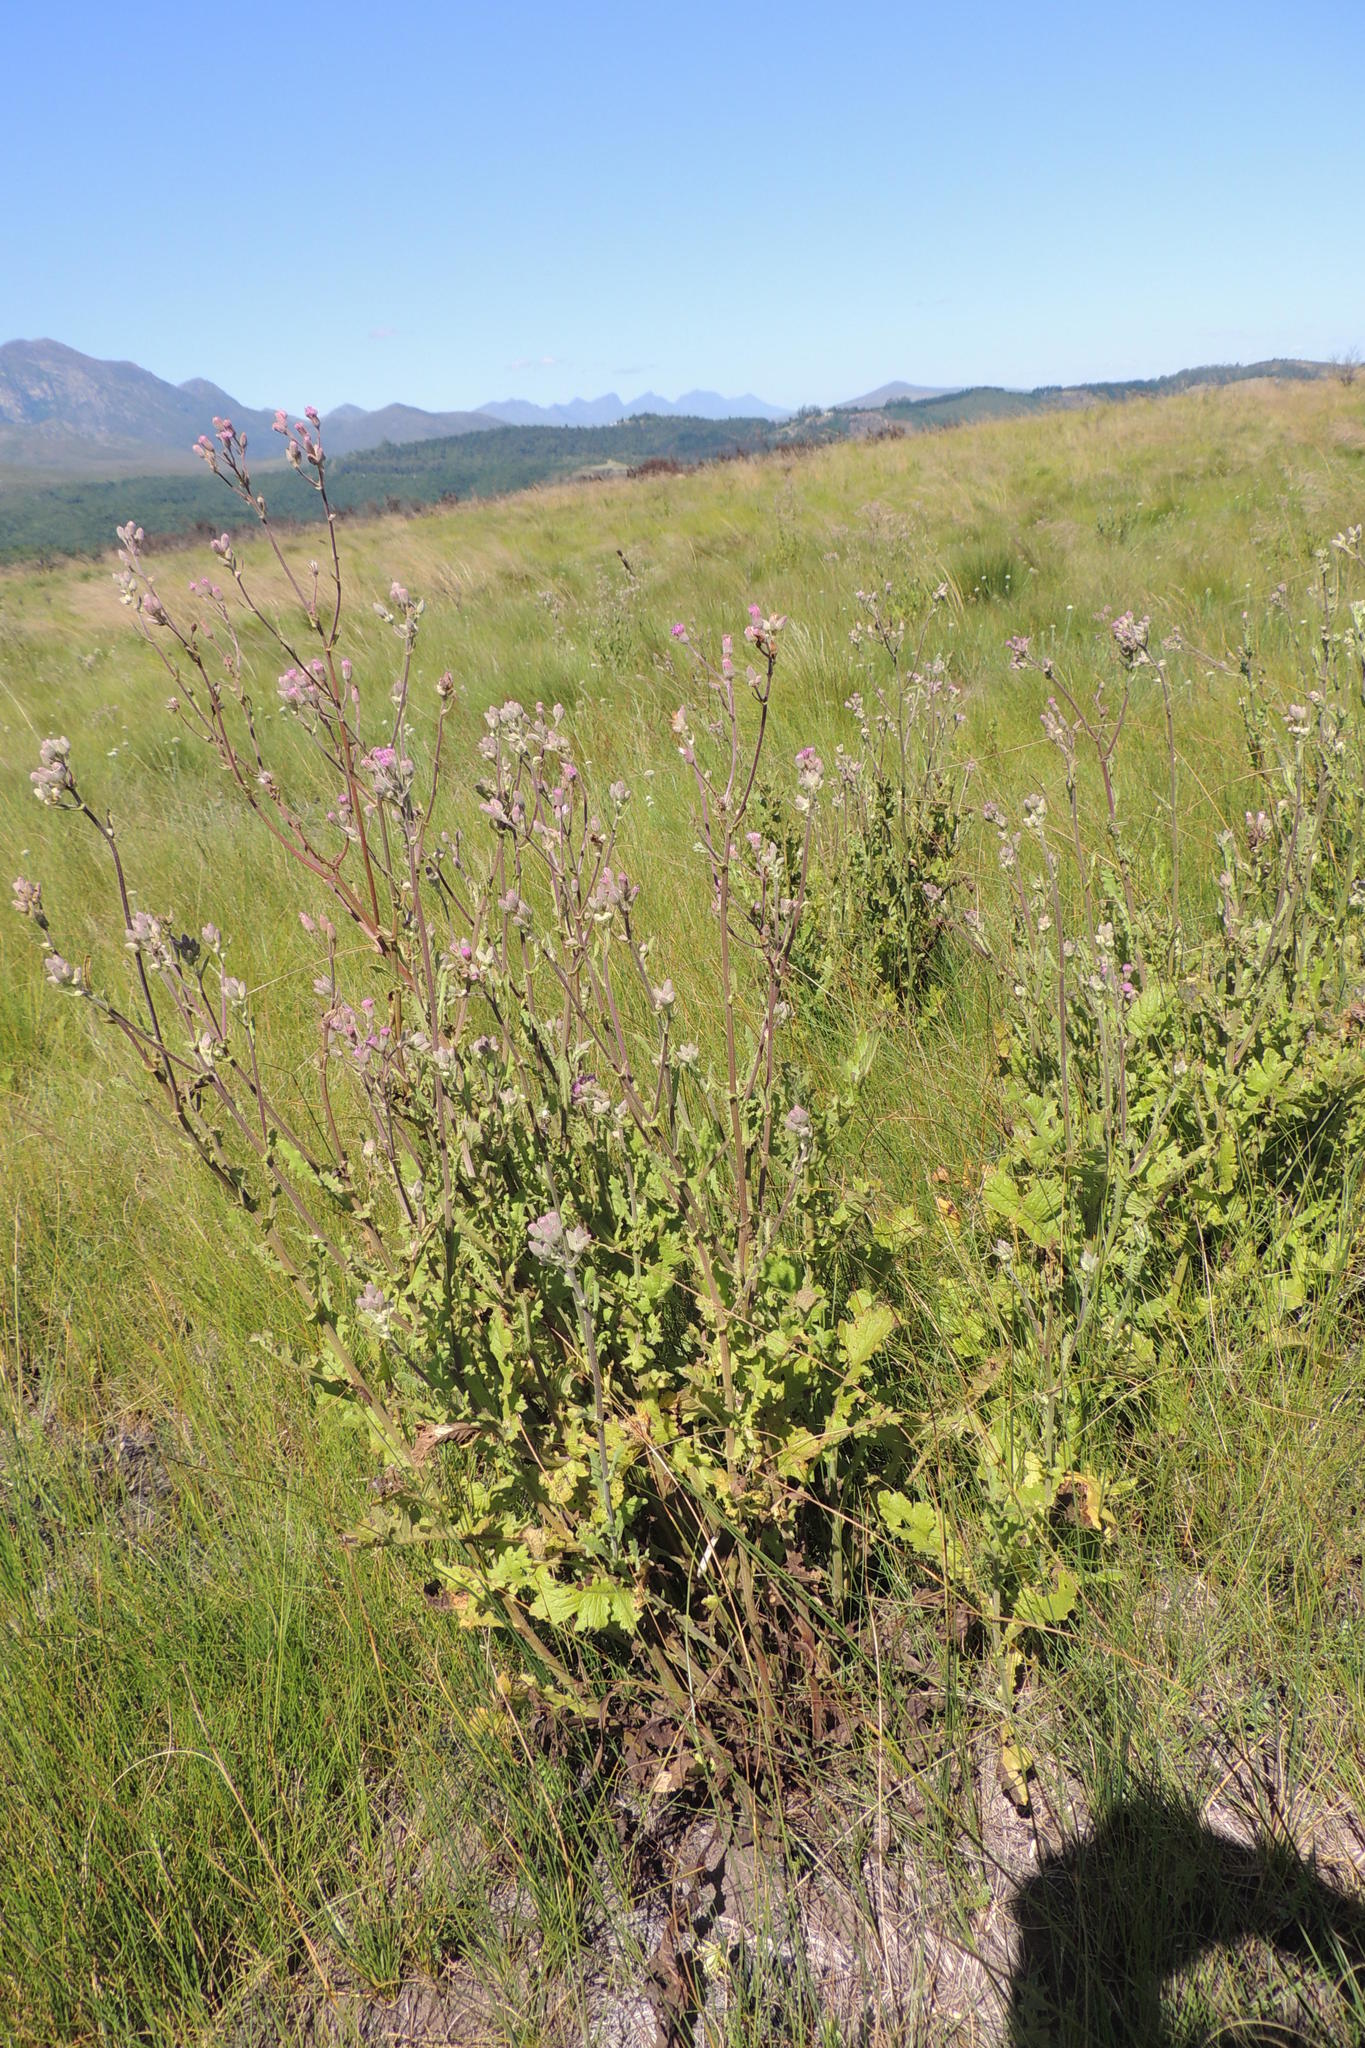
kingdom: Plantae
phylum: Tracheophyta
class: Magnoliopsida
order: Asterales
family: Asteraceae
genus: Senecio
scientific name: Senecio purpureus
